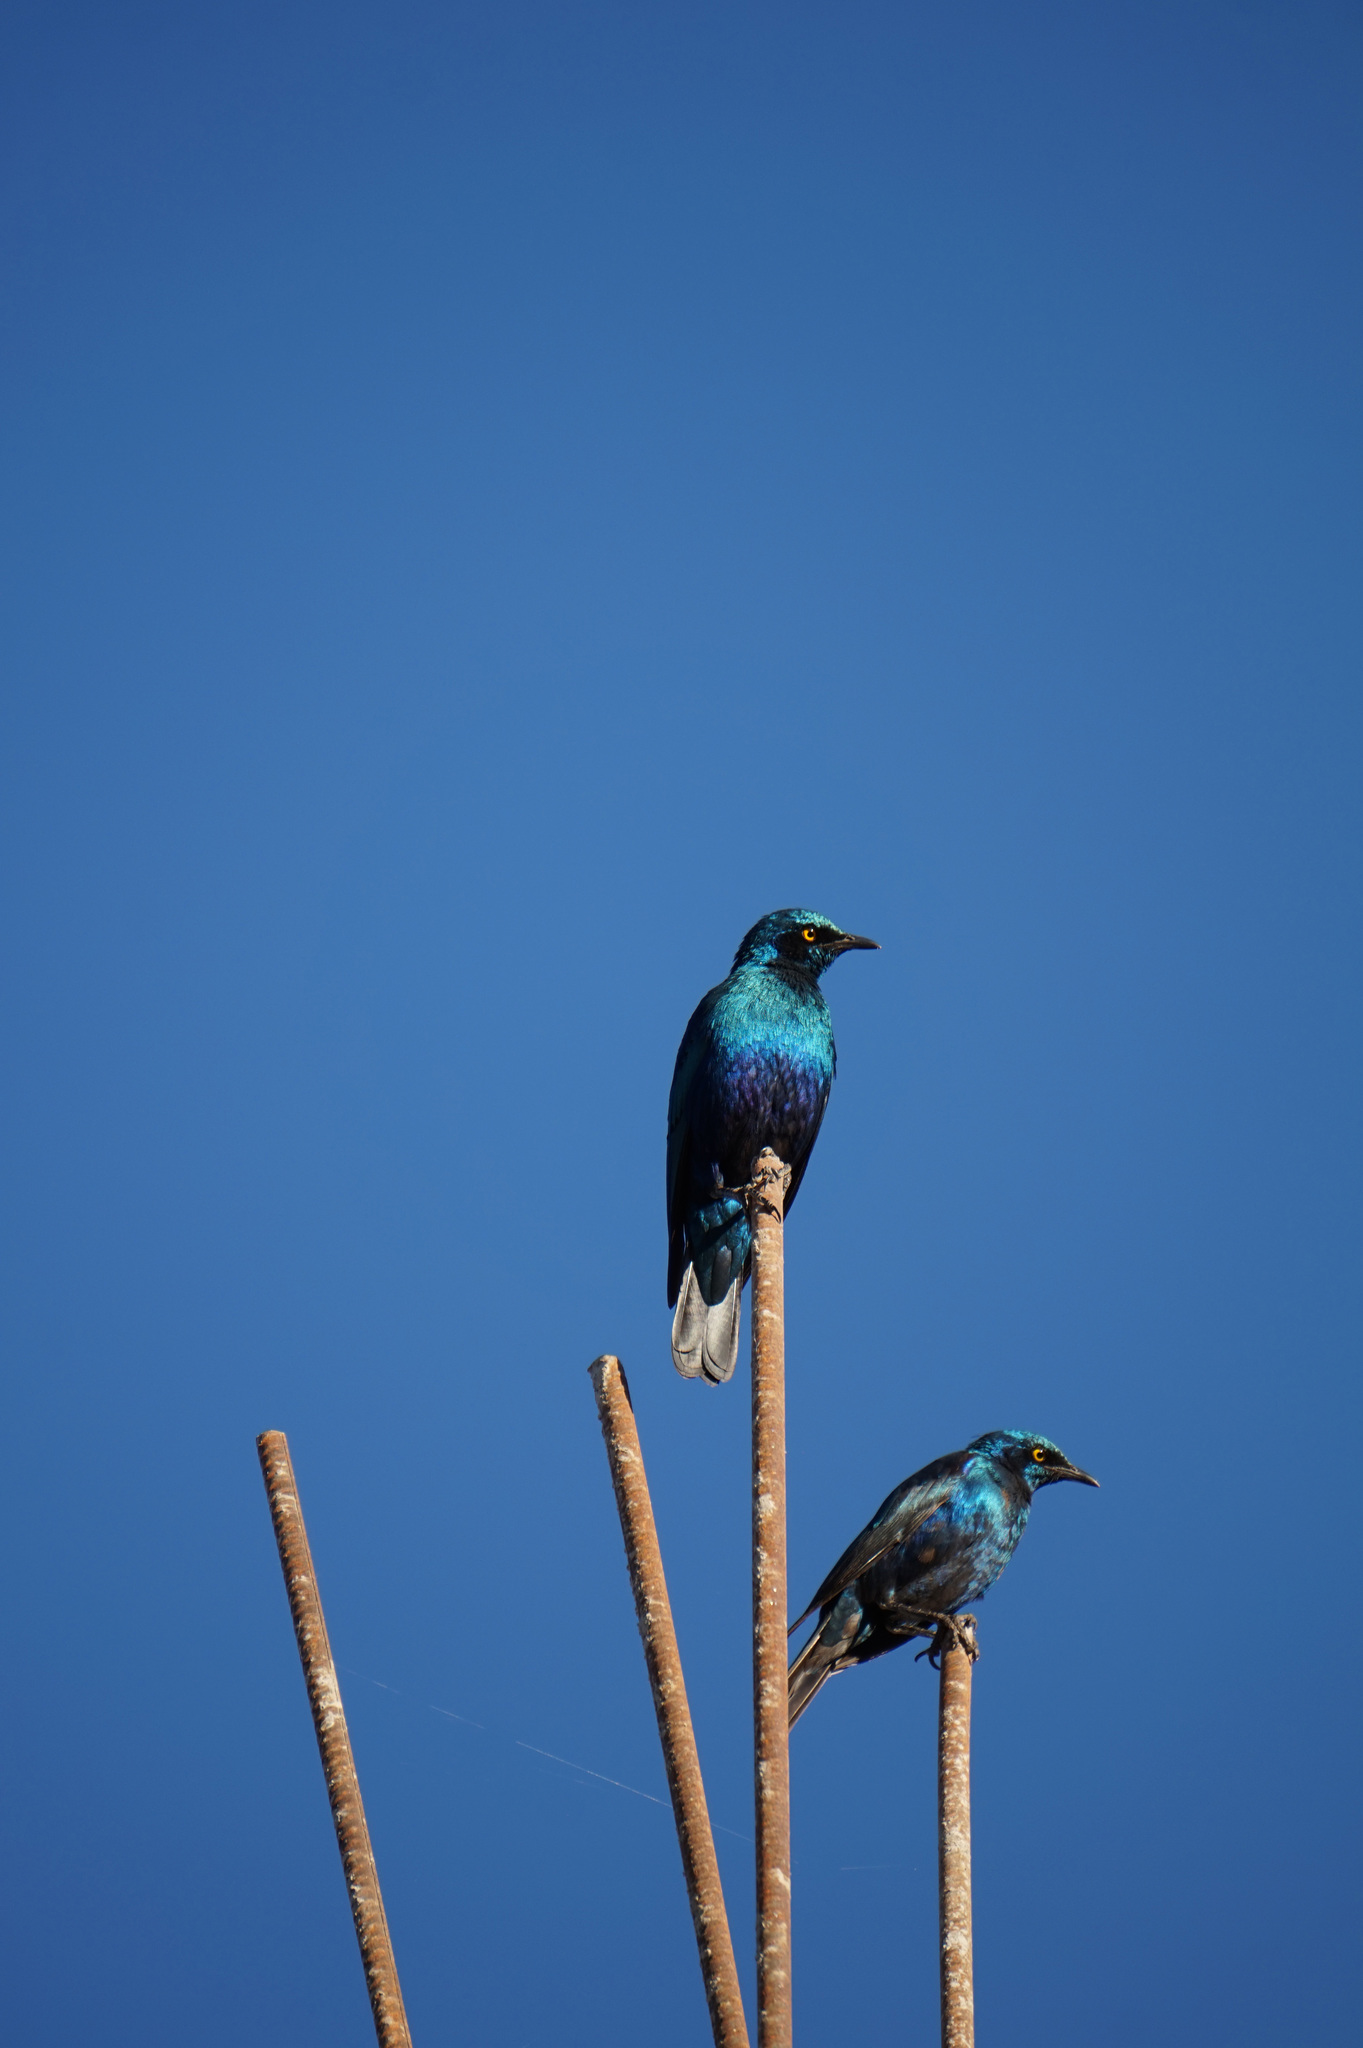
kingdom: Animalia
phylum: Chordata
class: Aves
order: Passeriformes
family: Sturnidae
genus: Lamprotornis
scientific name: Lamprotornis chalybaeus
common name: Greater blue-eared starling
